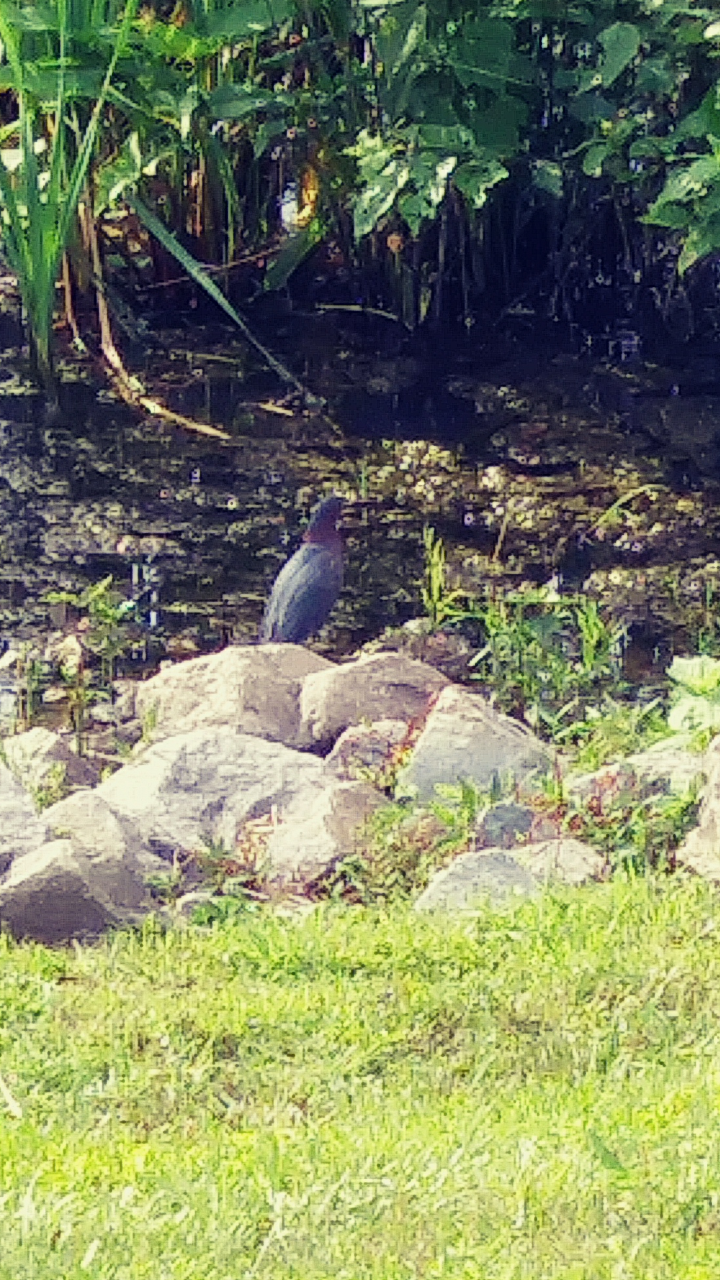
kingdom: Animalia
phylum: Chordata
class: Aves
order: Pelecaniformes
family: Ardeidae
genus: Butorides
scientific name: Butorides virescens
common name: Green heron
